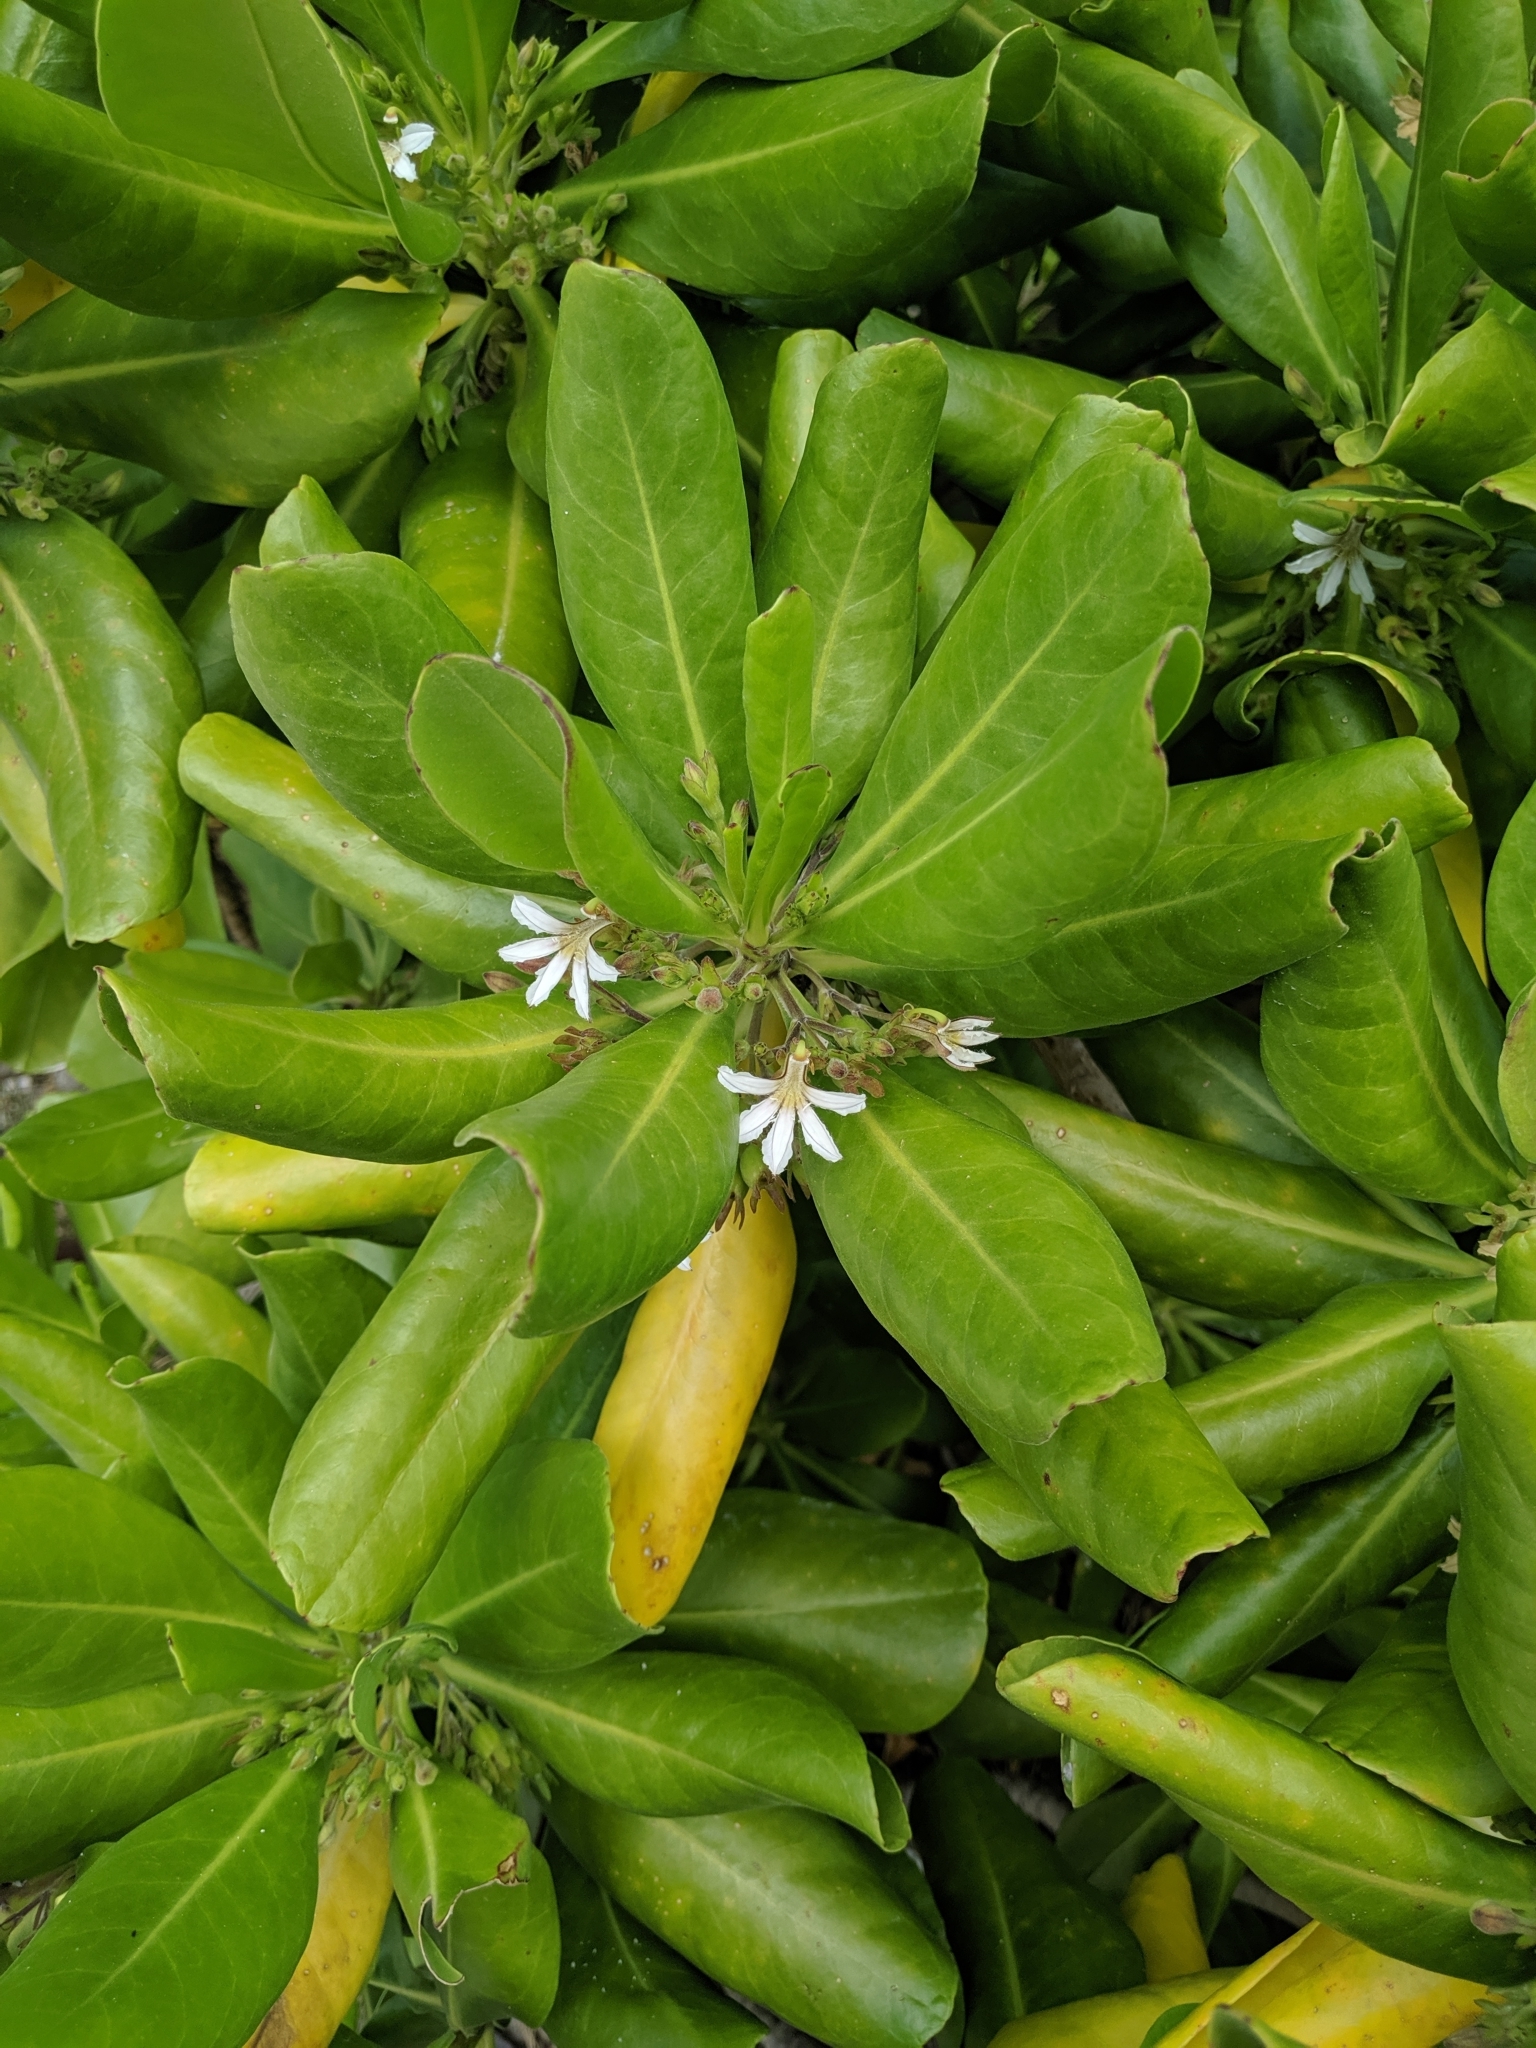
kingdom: Plantae
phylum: Tracheophyta
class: Magnoliopsida
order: Asterales
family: Goodeniaceae
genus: Scaevola
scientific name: Scaevola taccada
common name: Sea lettucetree
